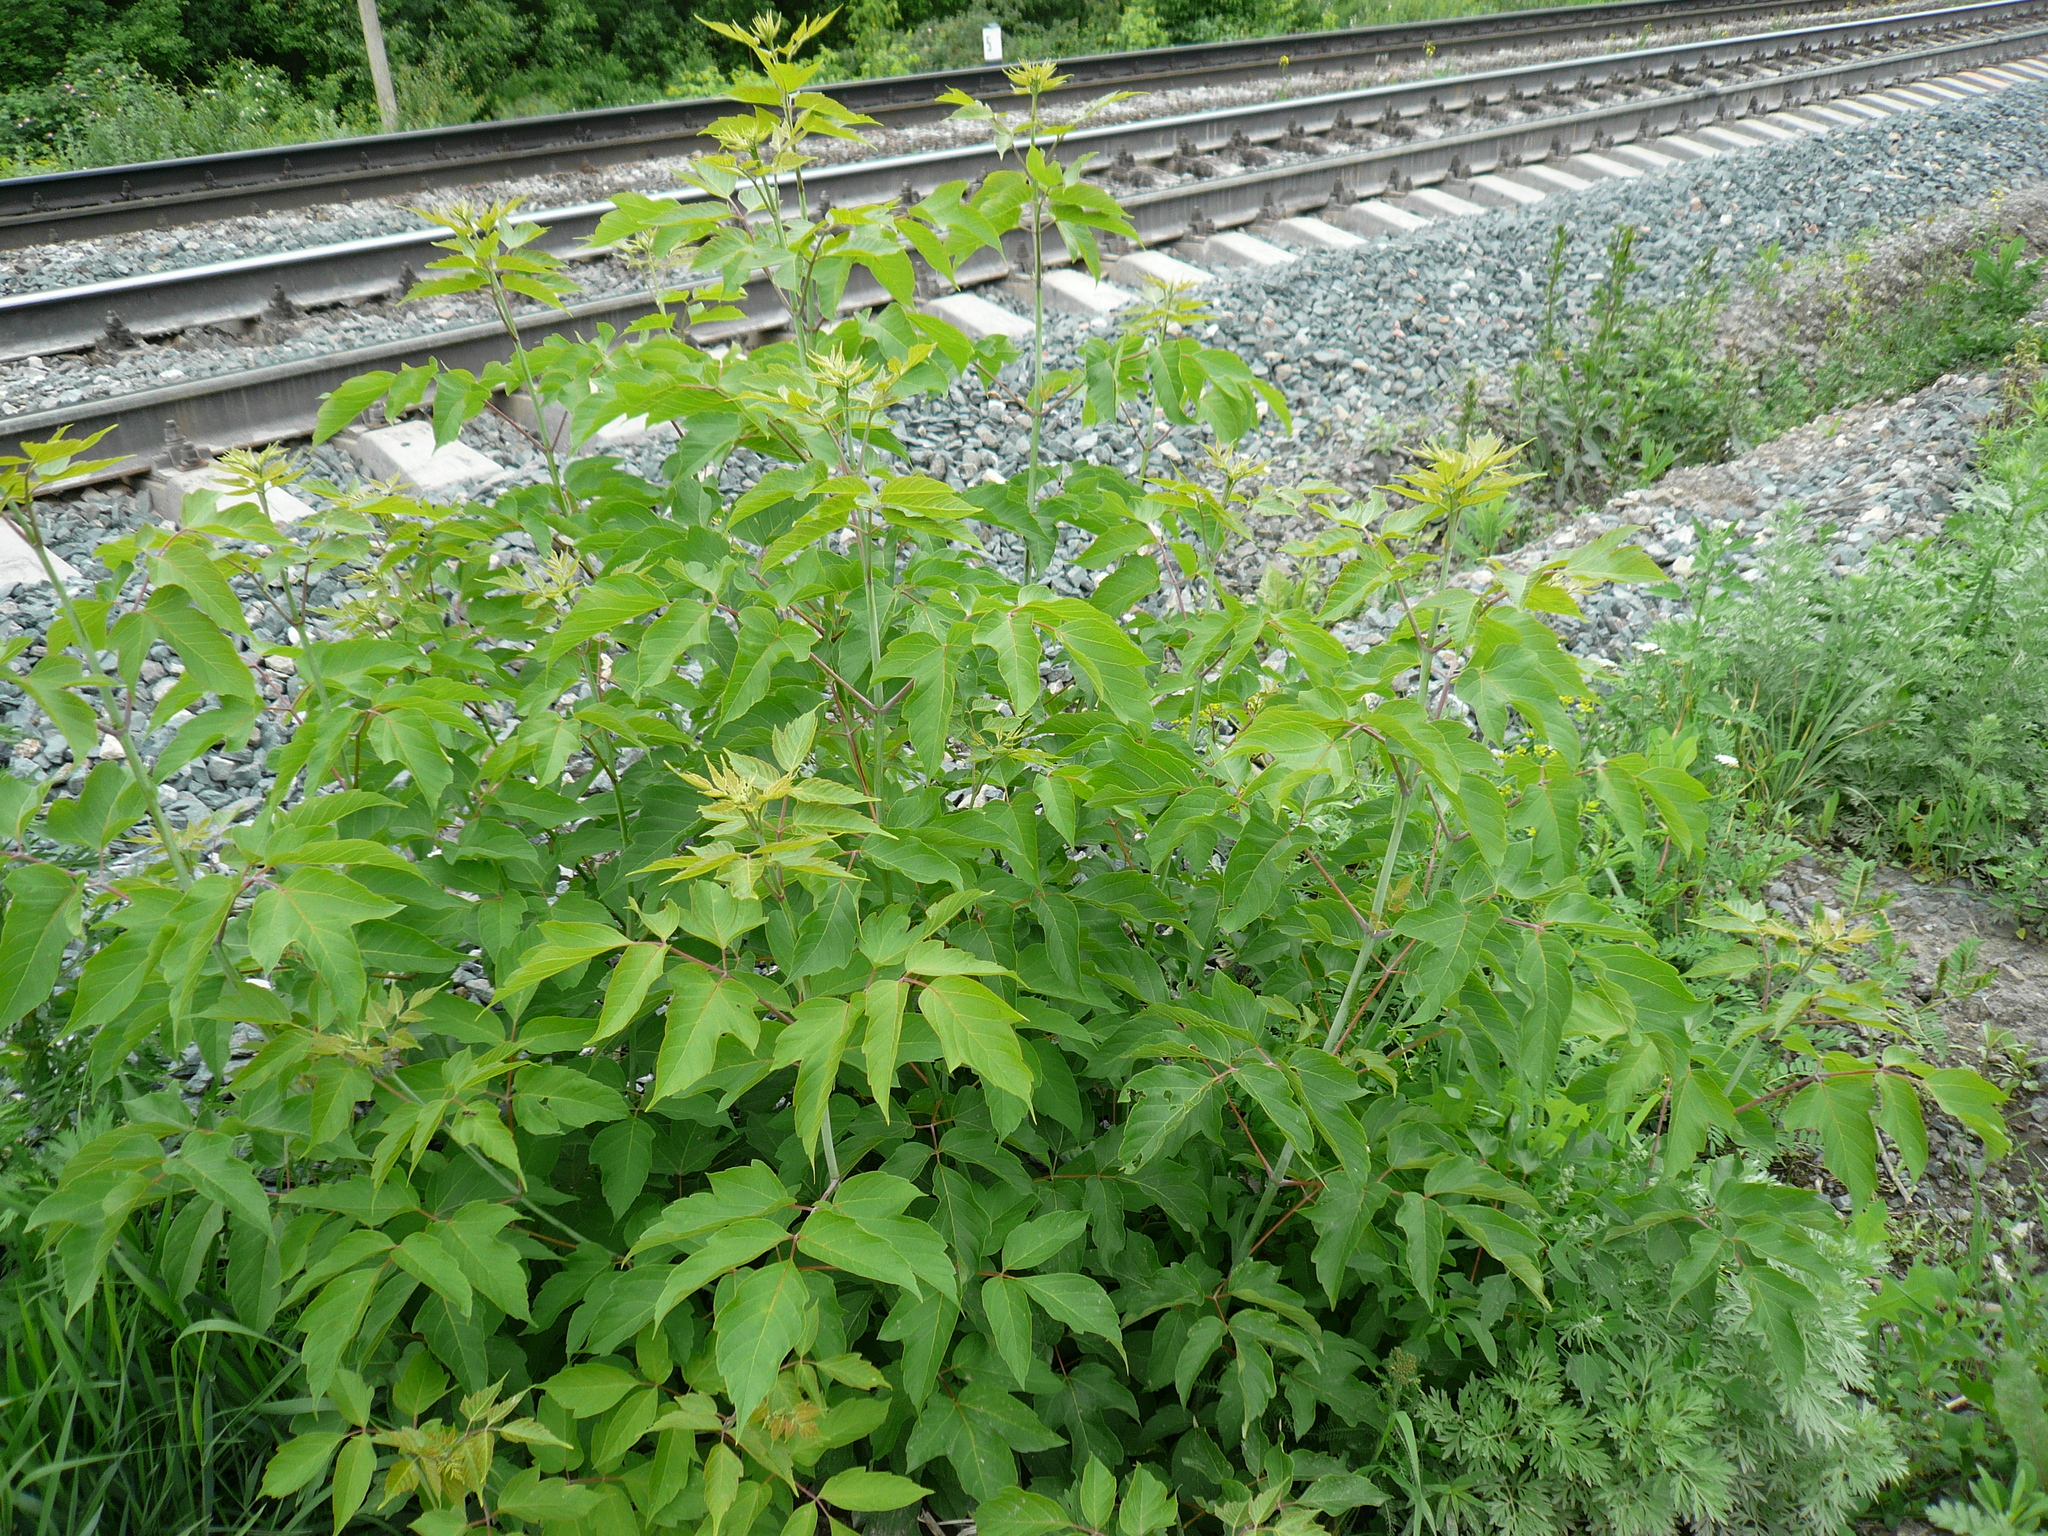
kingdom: Plantae
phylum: Tracheophyta
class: Magnoliopsida
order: Sapindales
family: Sapindaceae
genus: Acer
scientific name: Acer negundo
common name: Ashleaf maple
